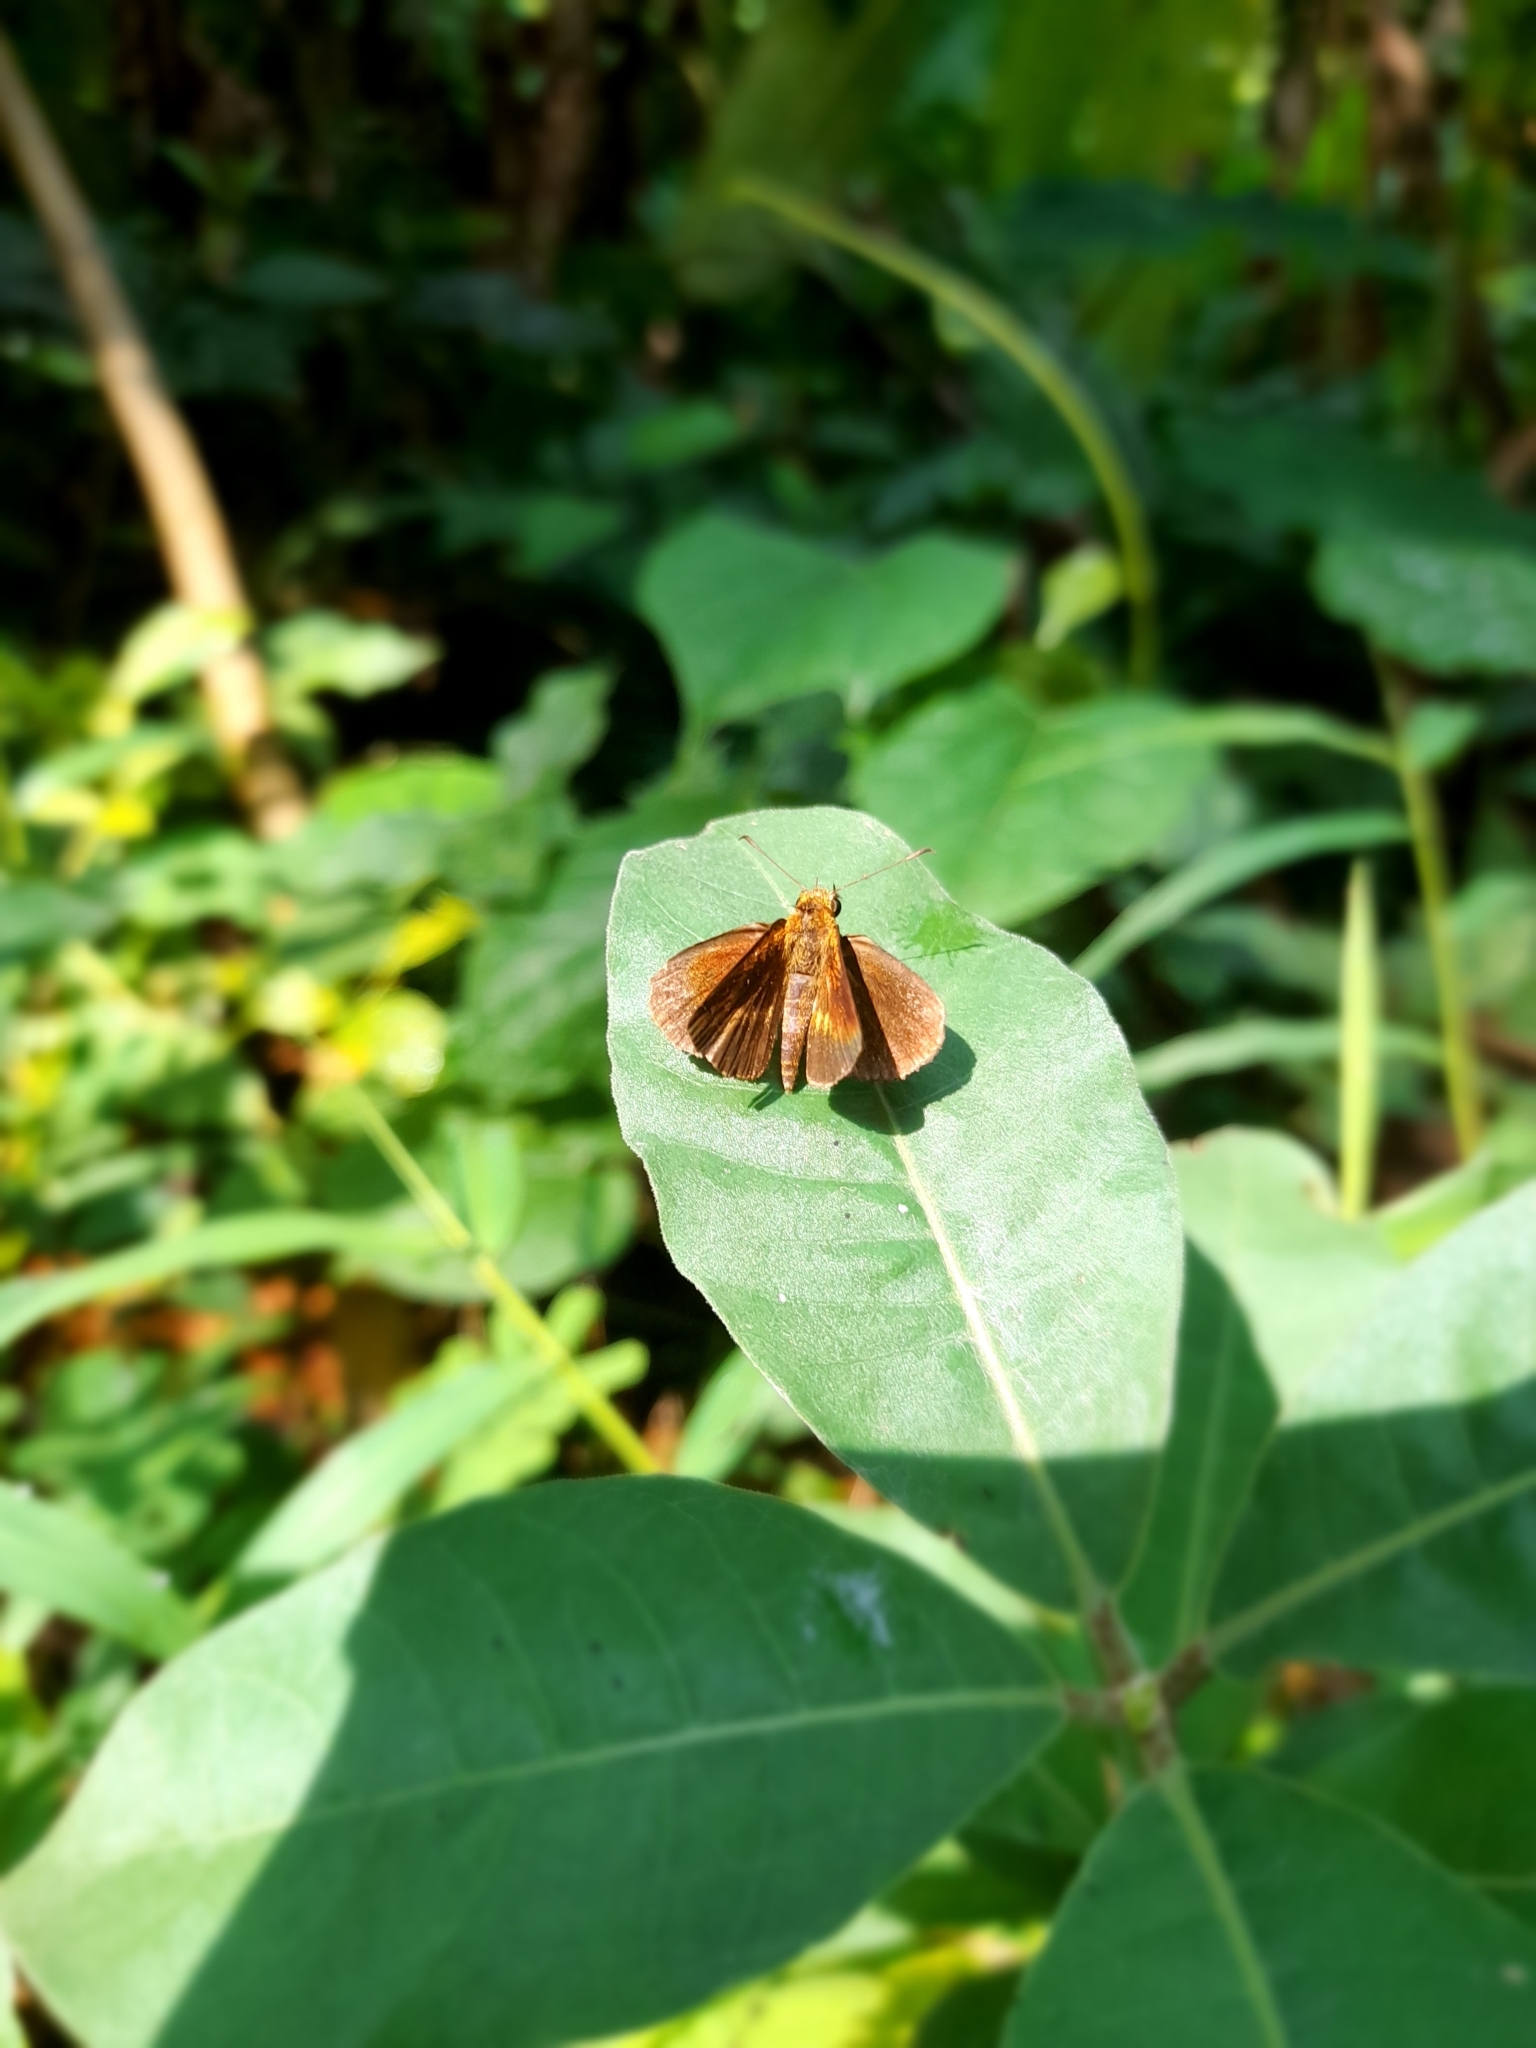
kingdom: Animalia
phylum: Arthropoda
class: Insecta
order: Lepidoptera
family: Hesperiidae
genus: Iambrix
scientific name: Iambrix salsala
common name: Chestnut bob
